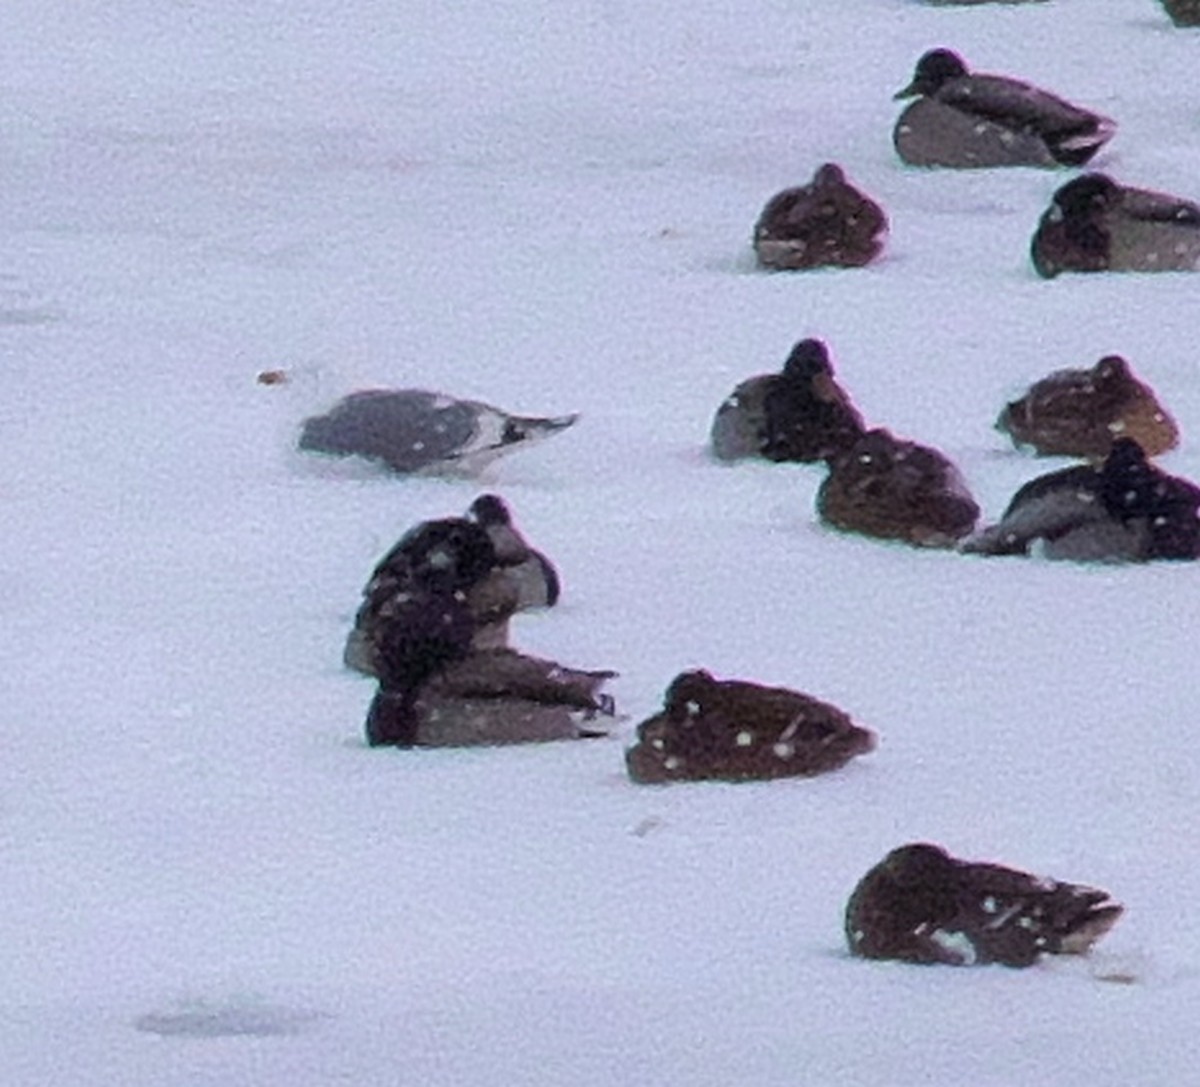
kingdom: Animalia
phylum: Chordata
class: Aves
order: Charadriiformes
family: Laridae
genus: Larus
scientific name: Larus argentatus
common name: Herring gull
